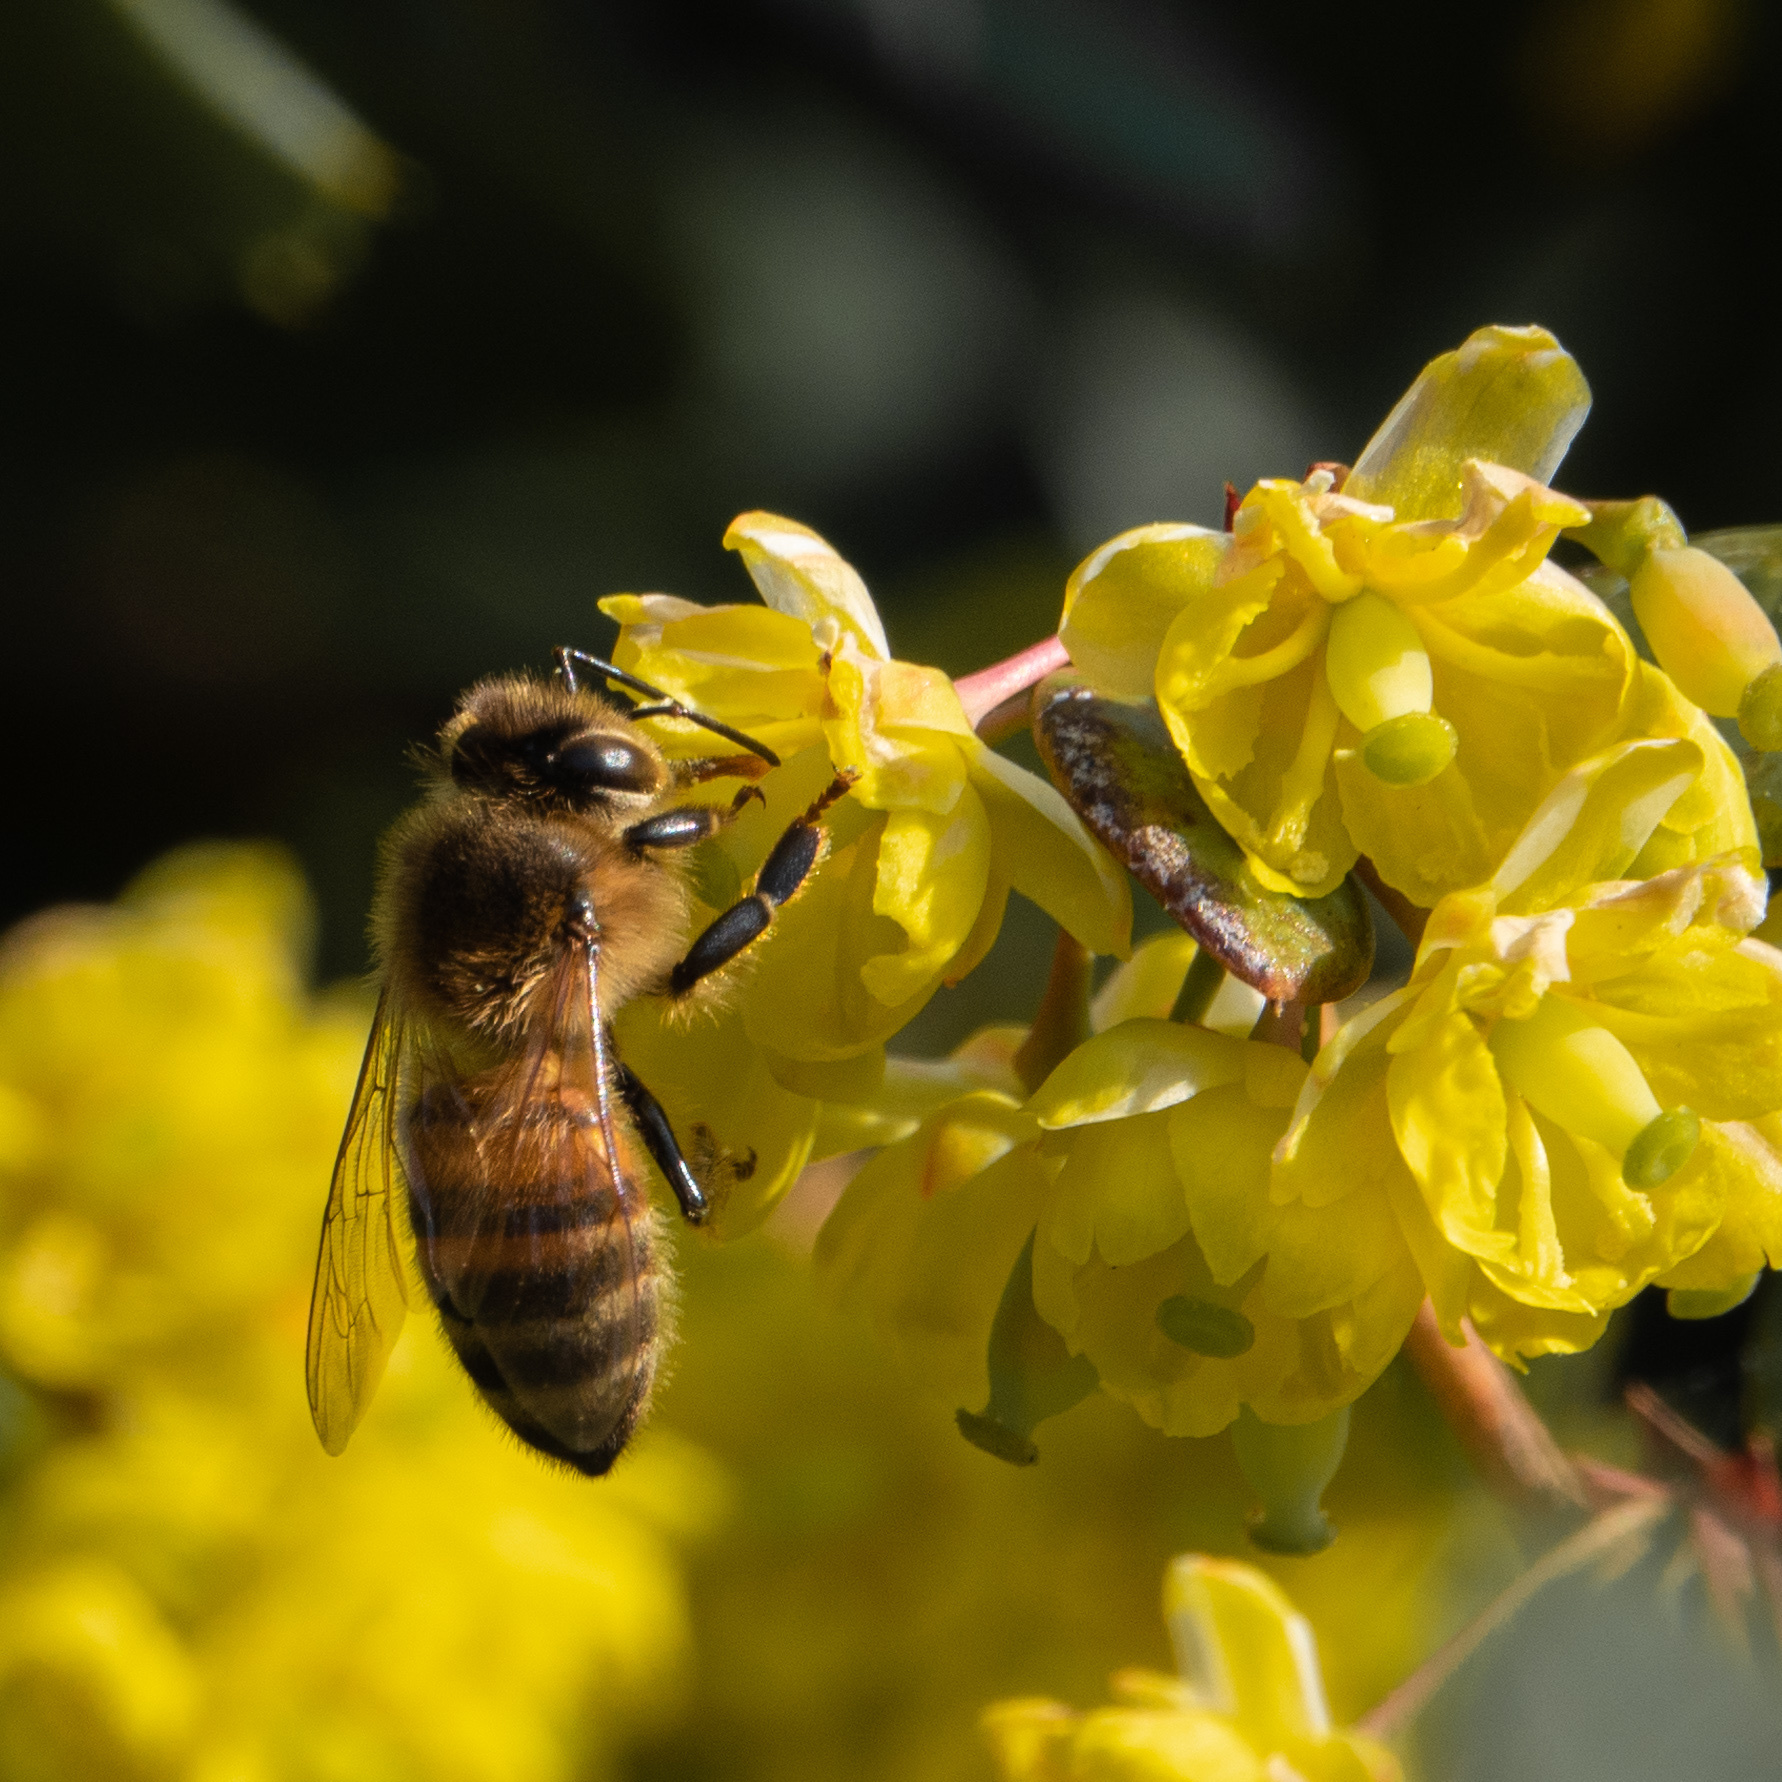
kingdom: Animalia
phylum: Arthropoda
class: Insecta
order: Hymenoptera
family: Apidae
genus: Apis
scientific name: Apis mellifera
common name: Honey bee
